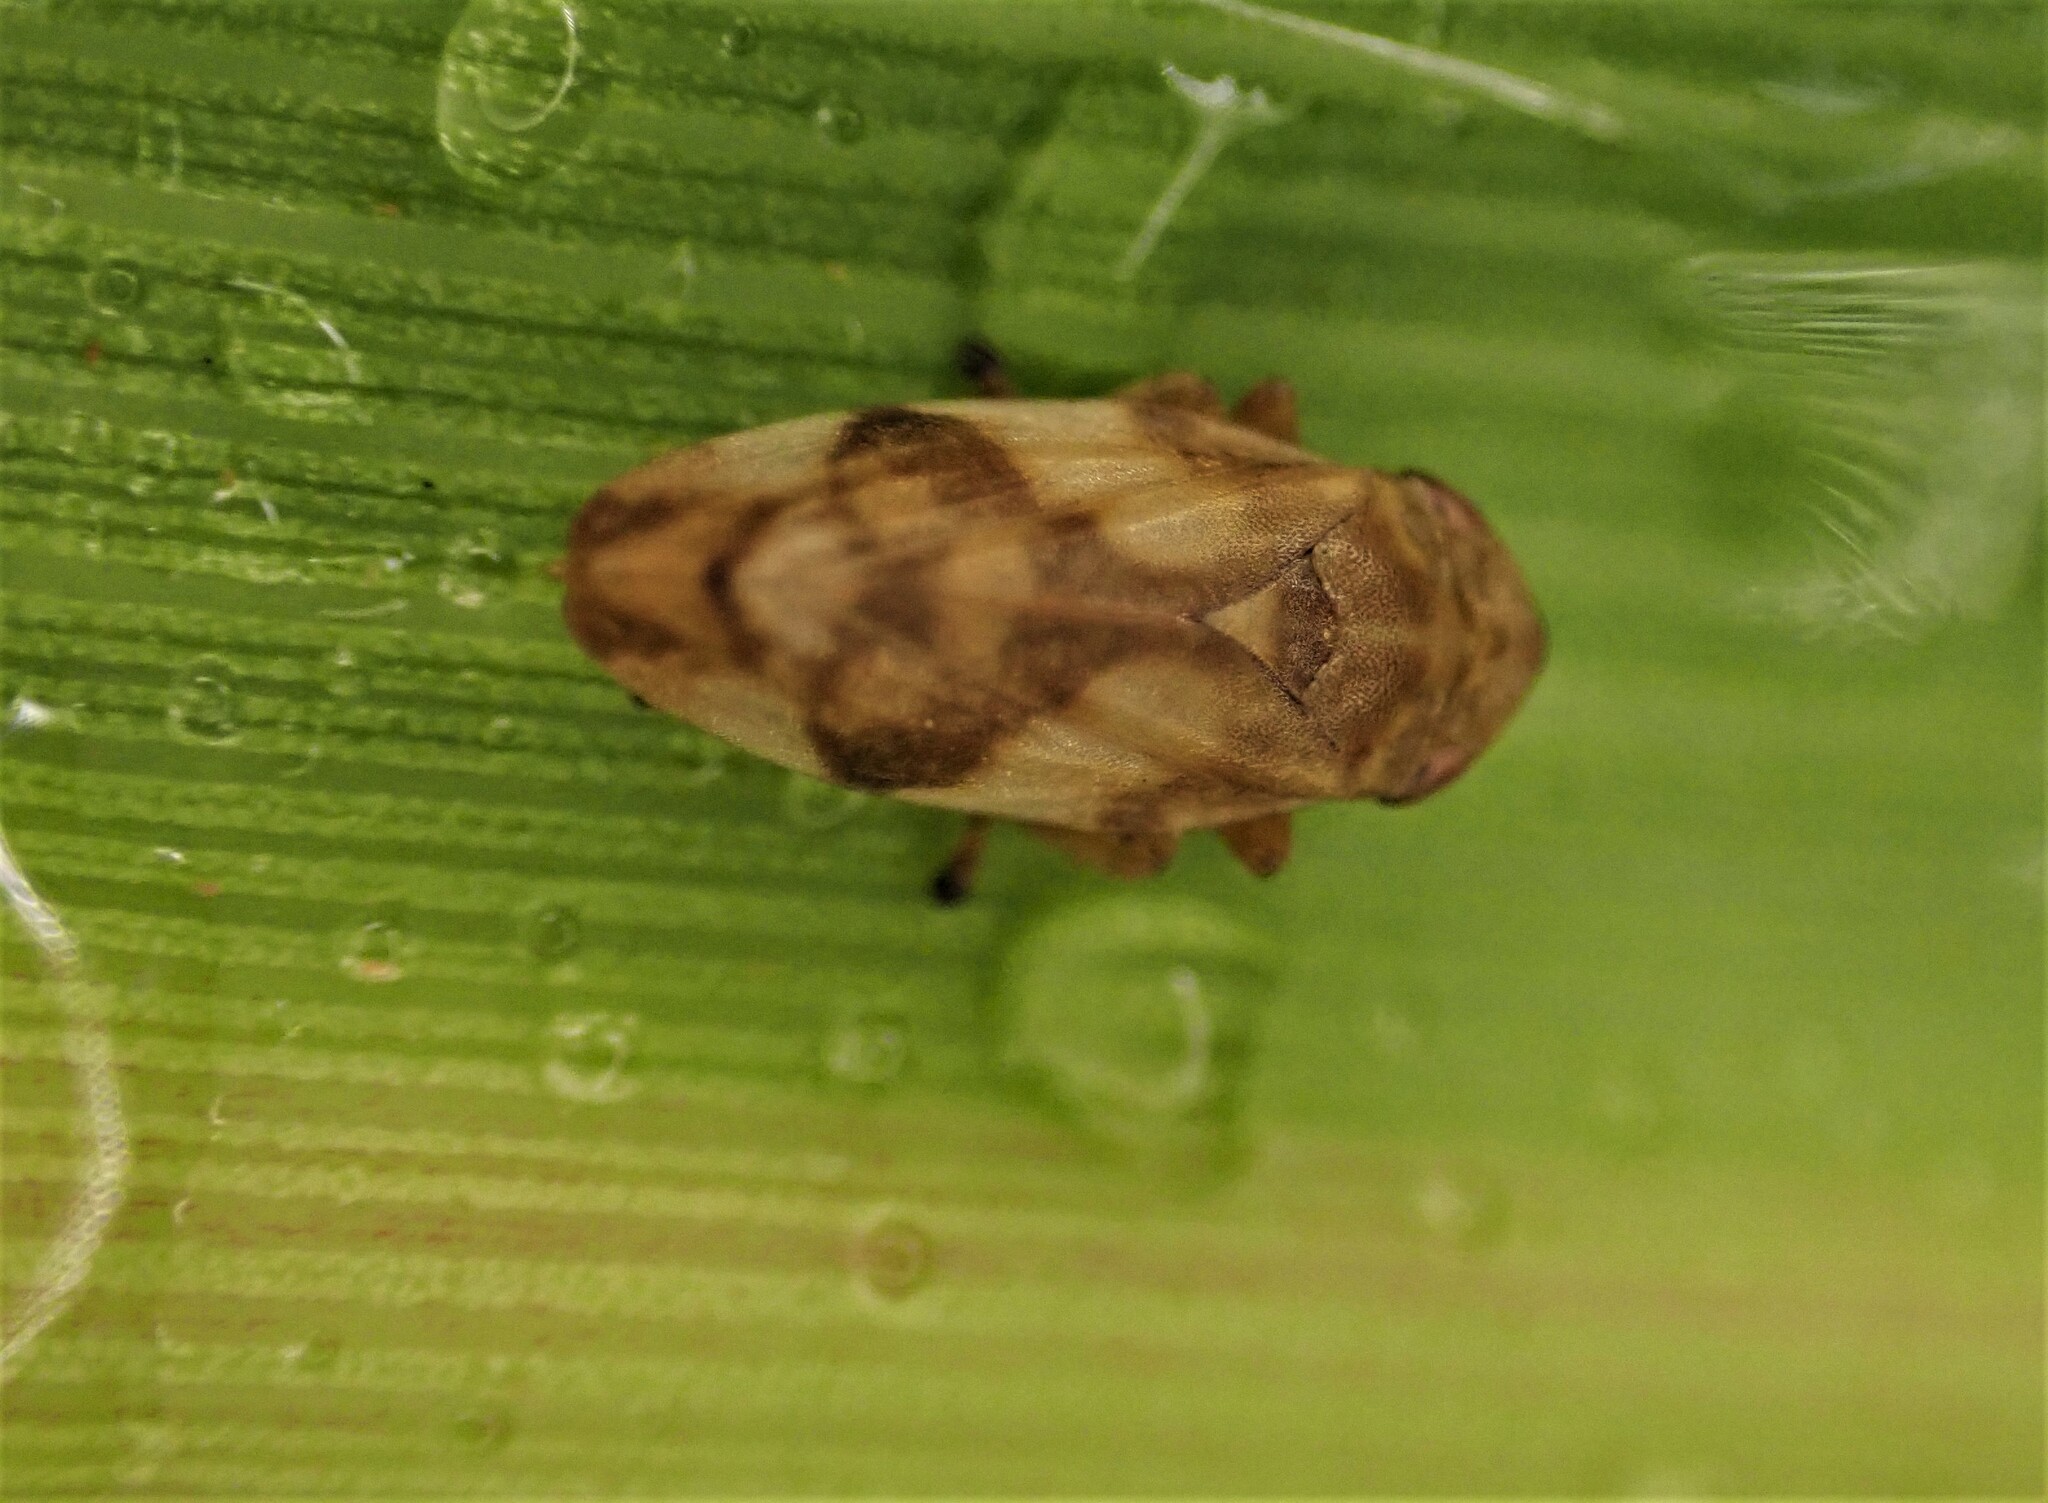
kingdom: Animalia
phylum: Arthropoda
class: Insecta
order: Hemiptera
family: Aphrophoridae
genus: Philaenus
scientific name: Philaenus spumarius
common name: Meadow spittlebug
